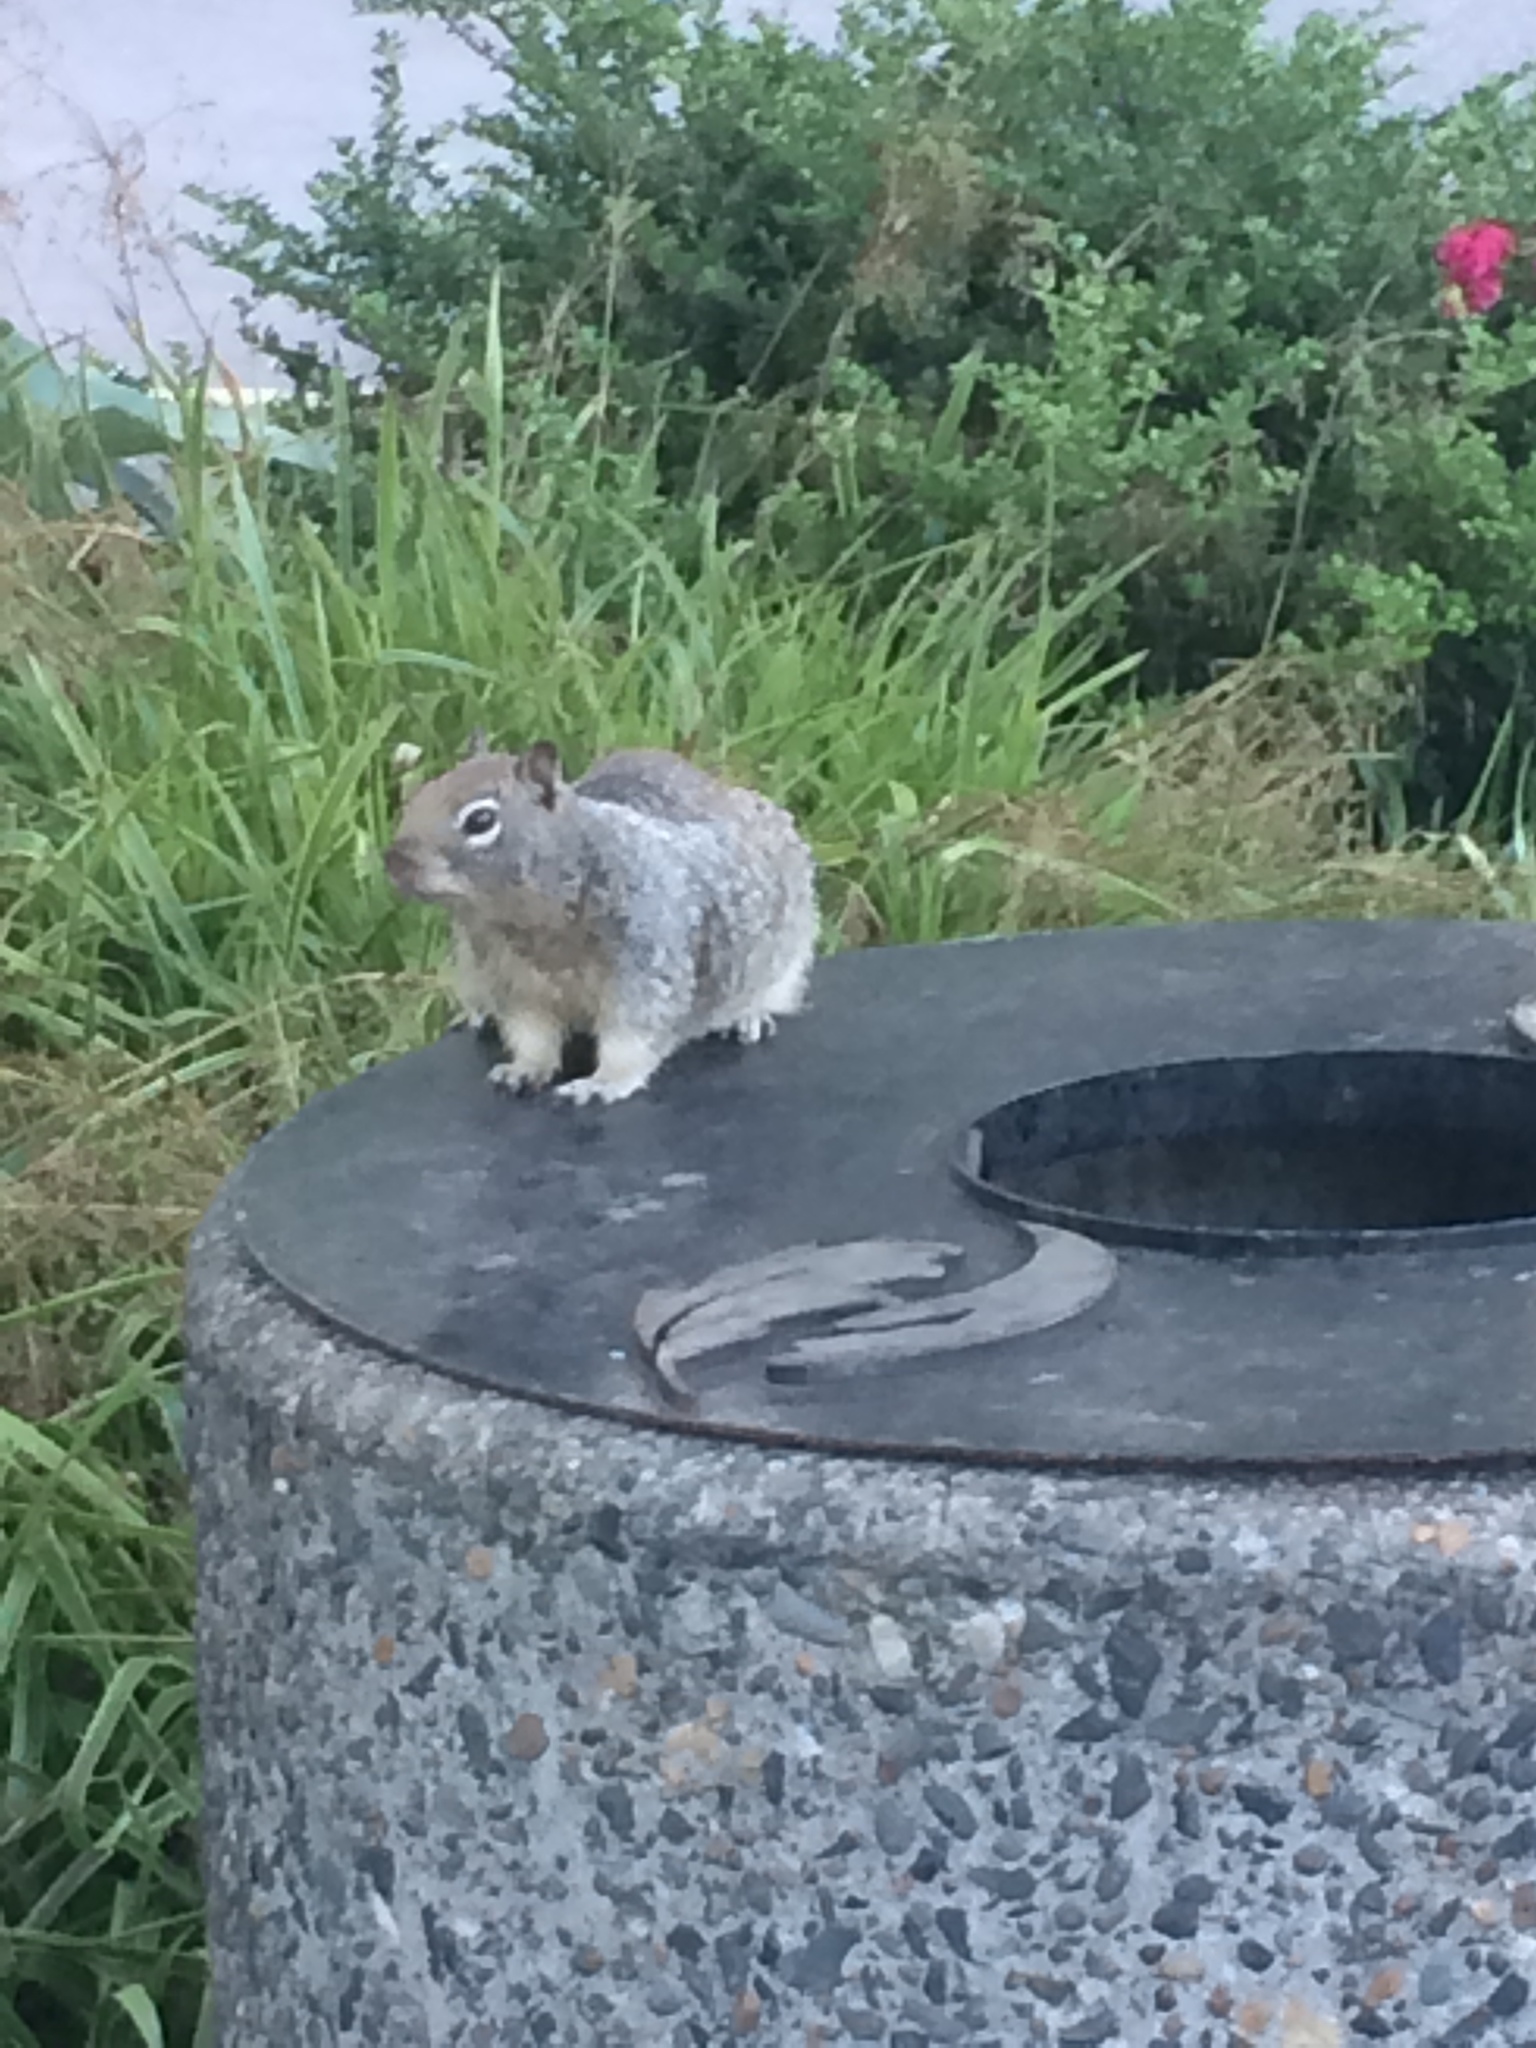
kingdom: Animalia
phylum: Chordata
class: Mammalia
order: Rodentia
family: Sciuridae
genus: Otospermophilus
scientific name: Otospermophilus beecheyi
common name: California ground squirrel
